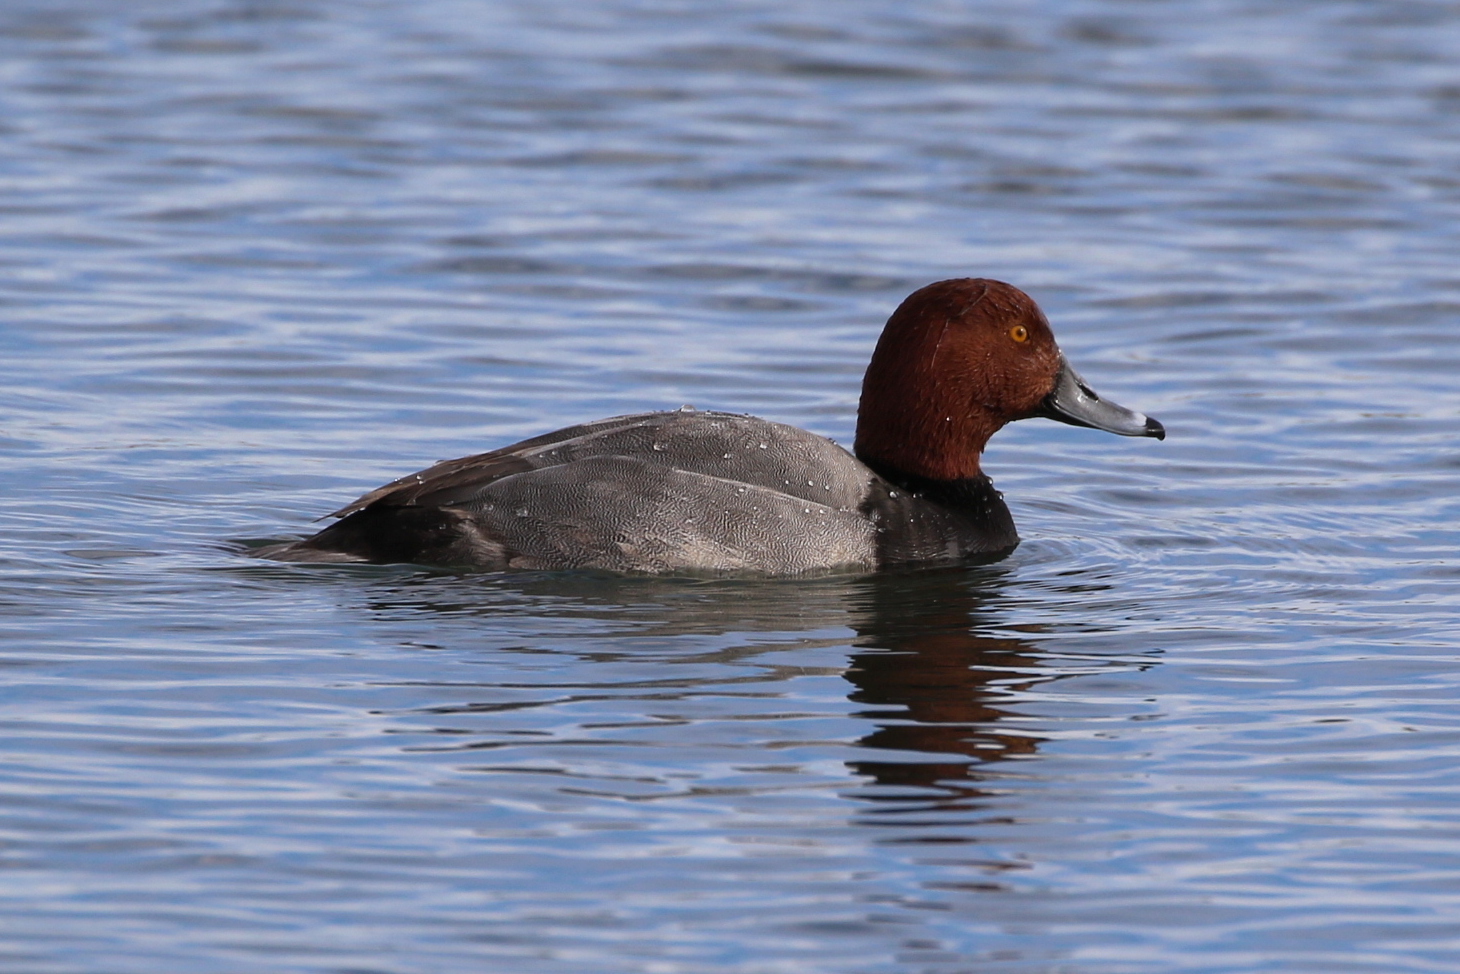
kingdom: Animalia
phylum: Chordata
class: Aves
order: Anseriformes
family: Anatidae
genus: Aythya
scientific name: Aythya americana
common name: Redhead
